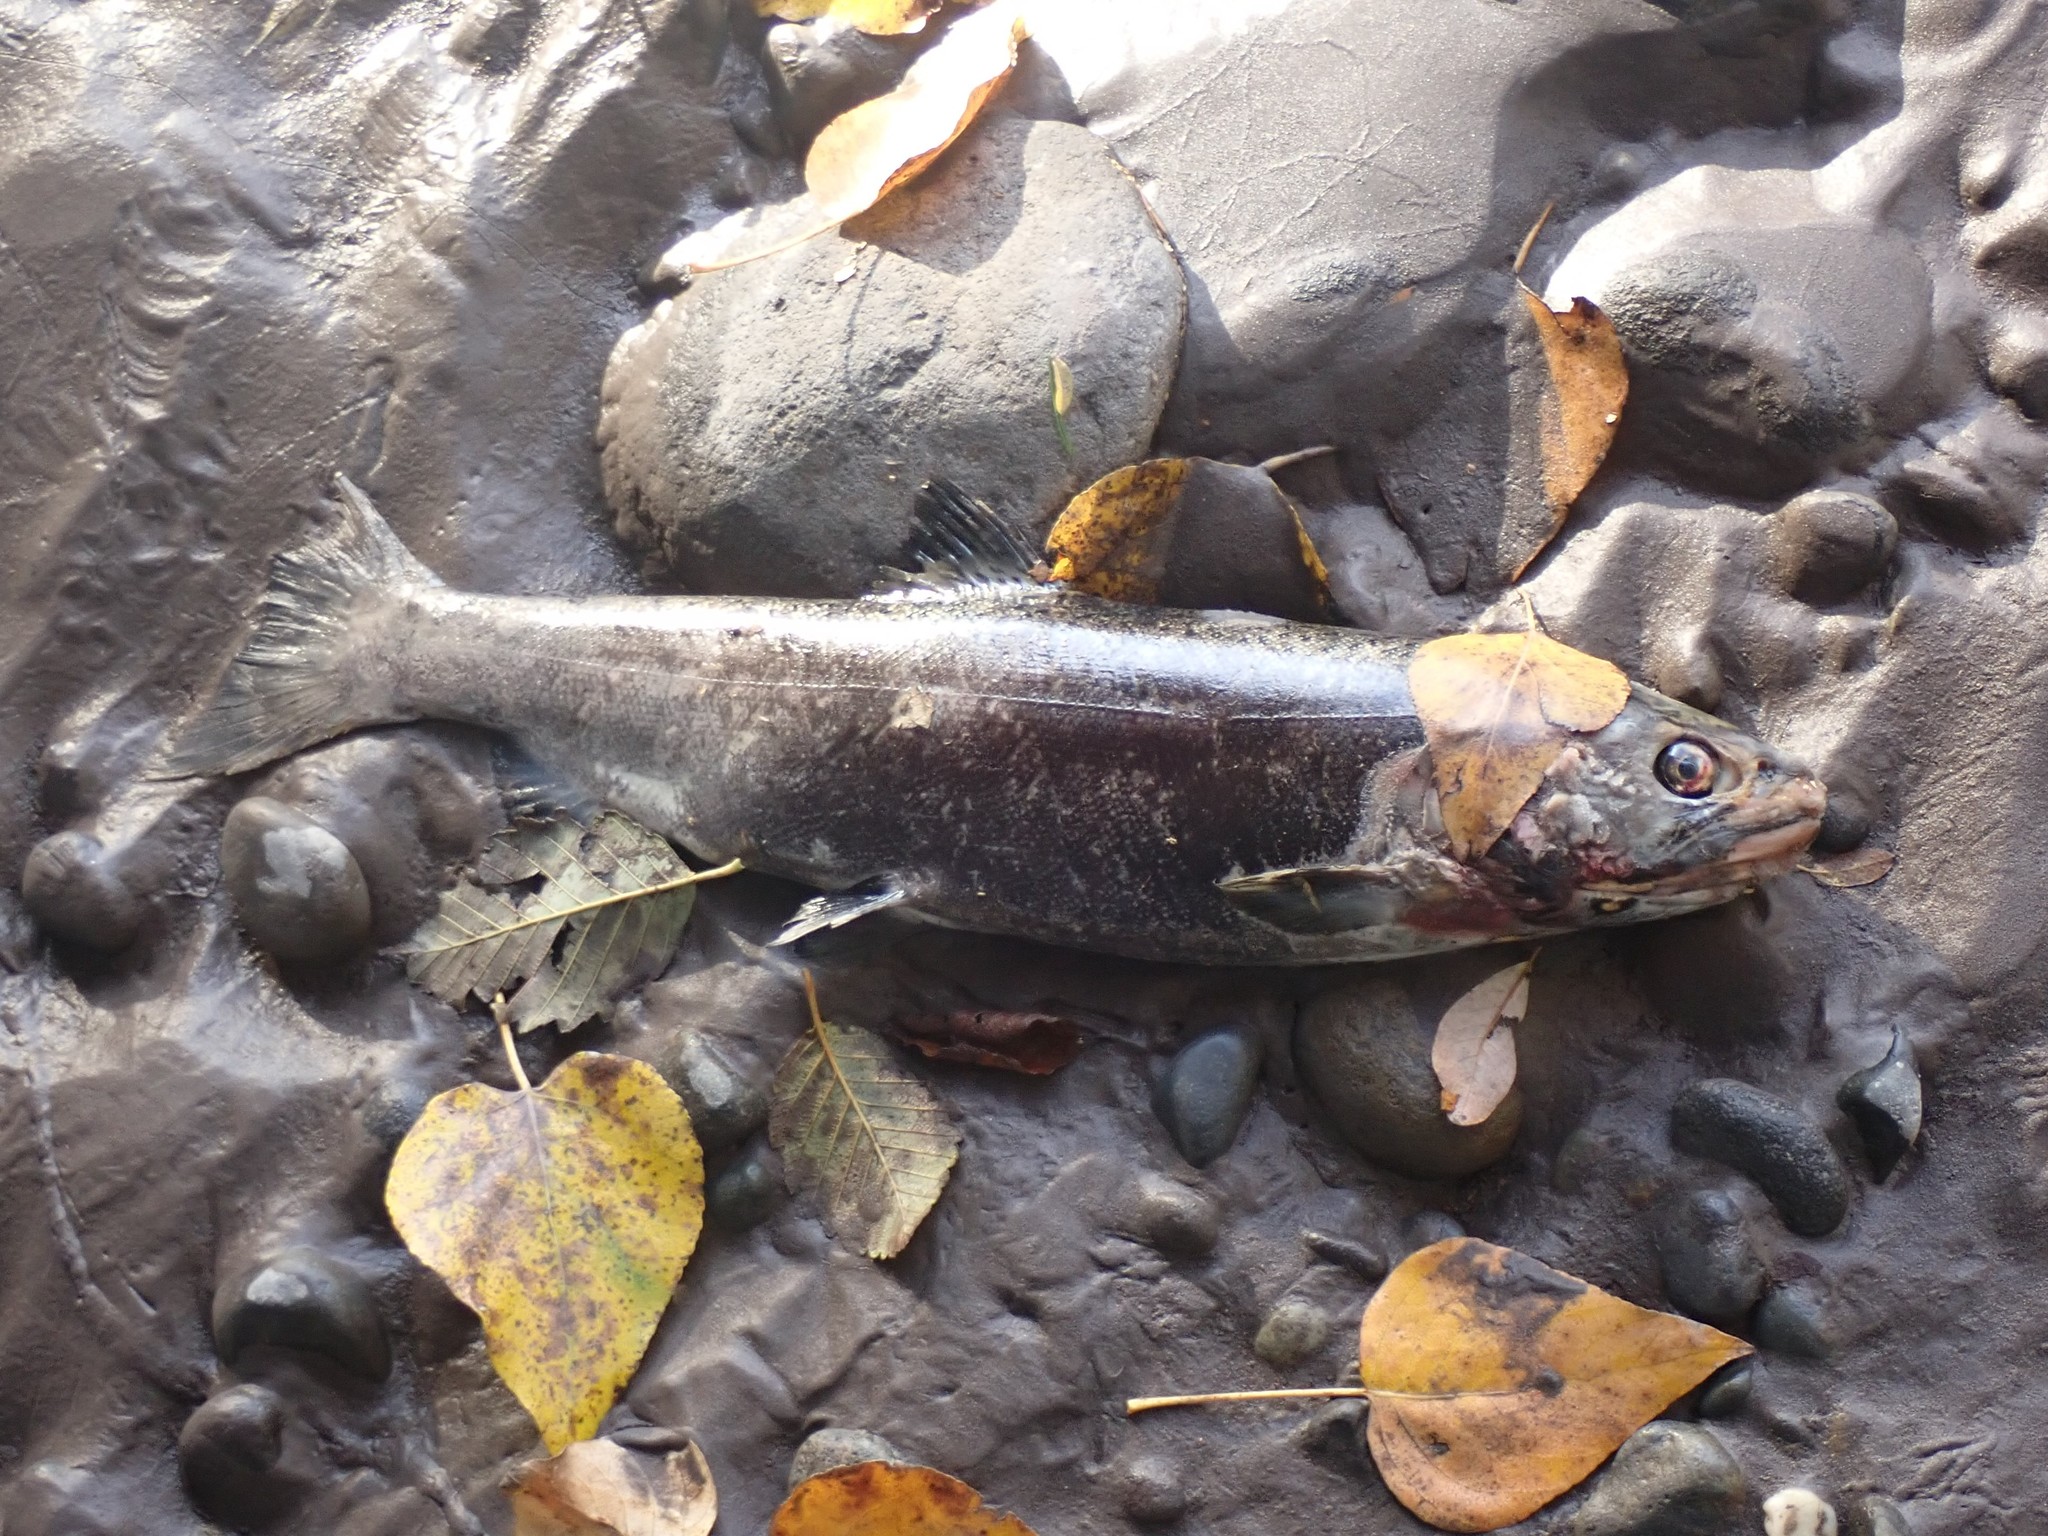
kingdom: Animalia
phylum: Chordata
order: Salmoniformes
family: Salmonidae
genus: Oncorhynchus
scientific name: Oncorhynchus kisutch
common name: Coho salmon
